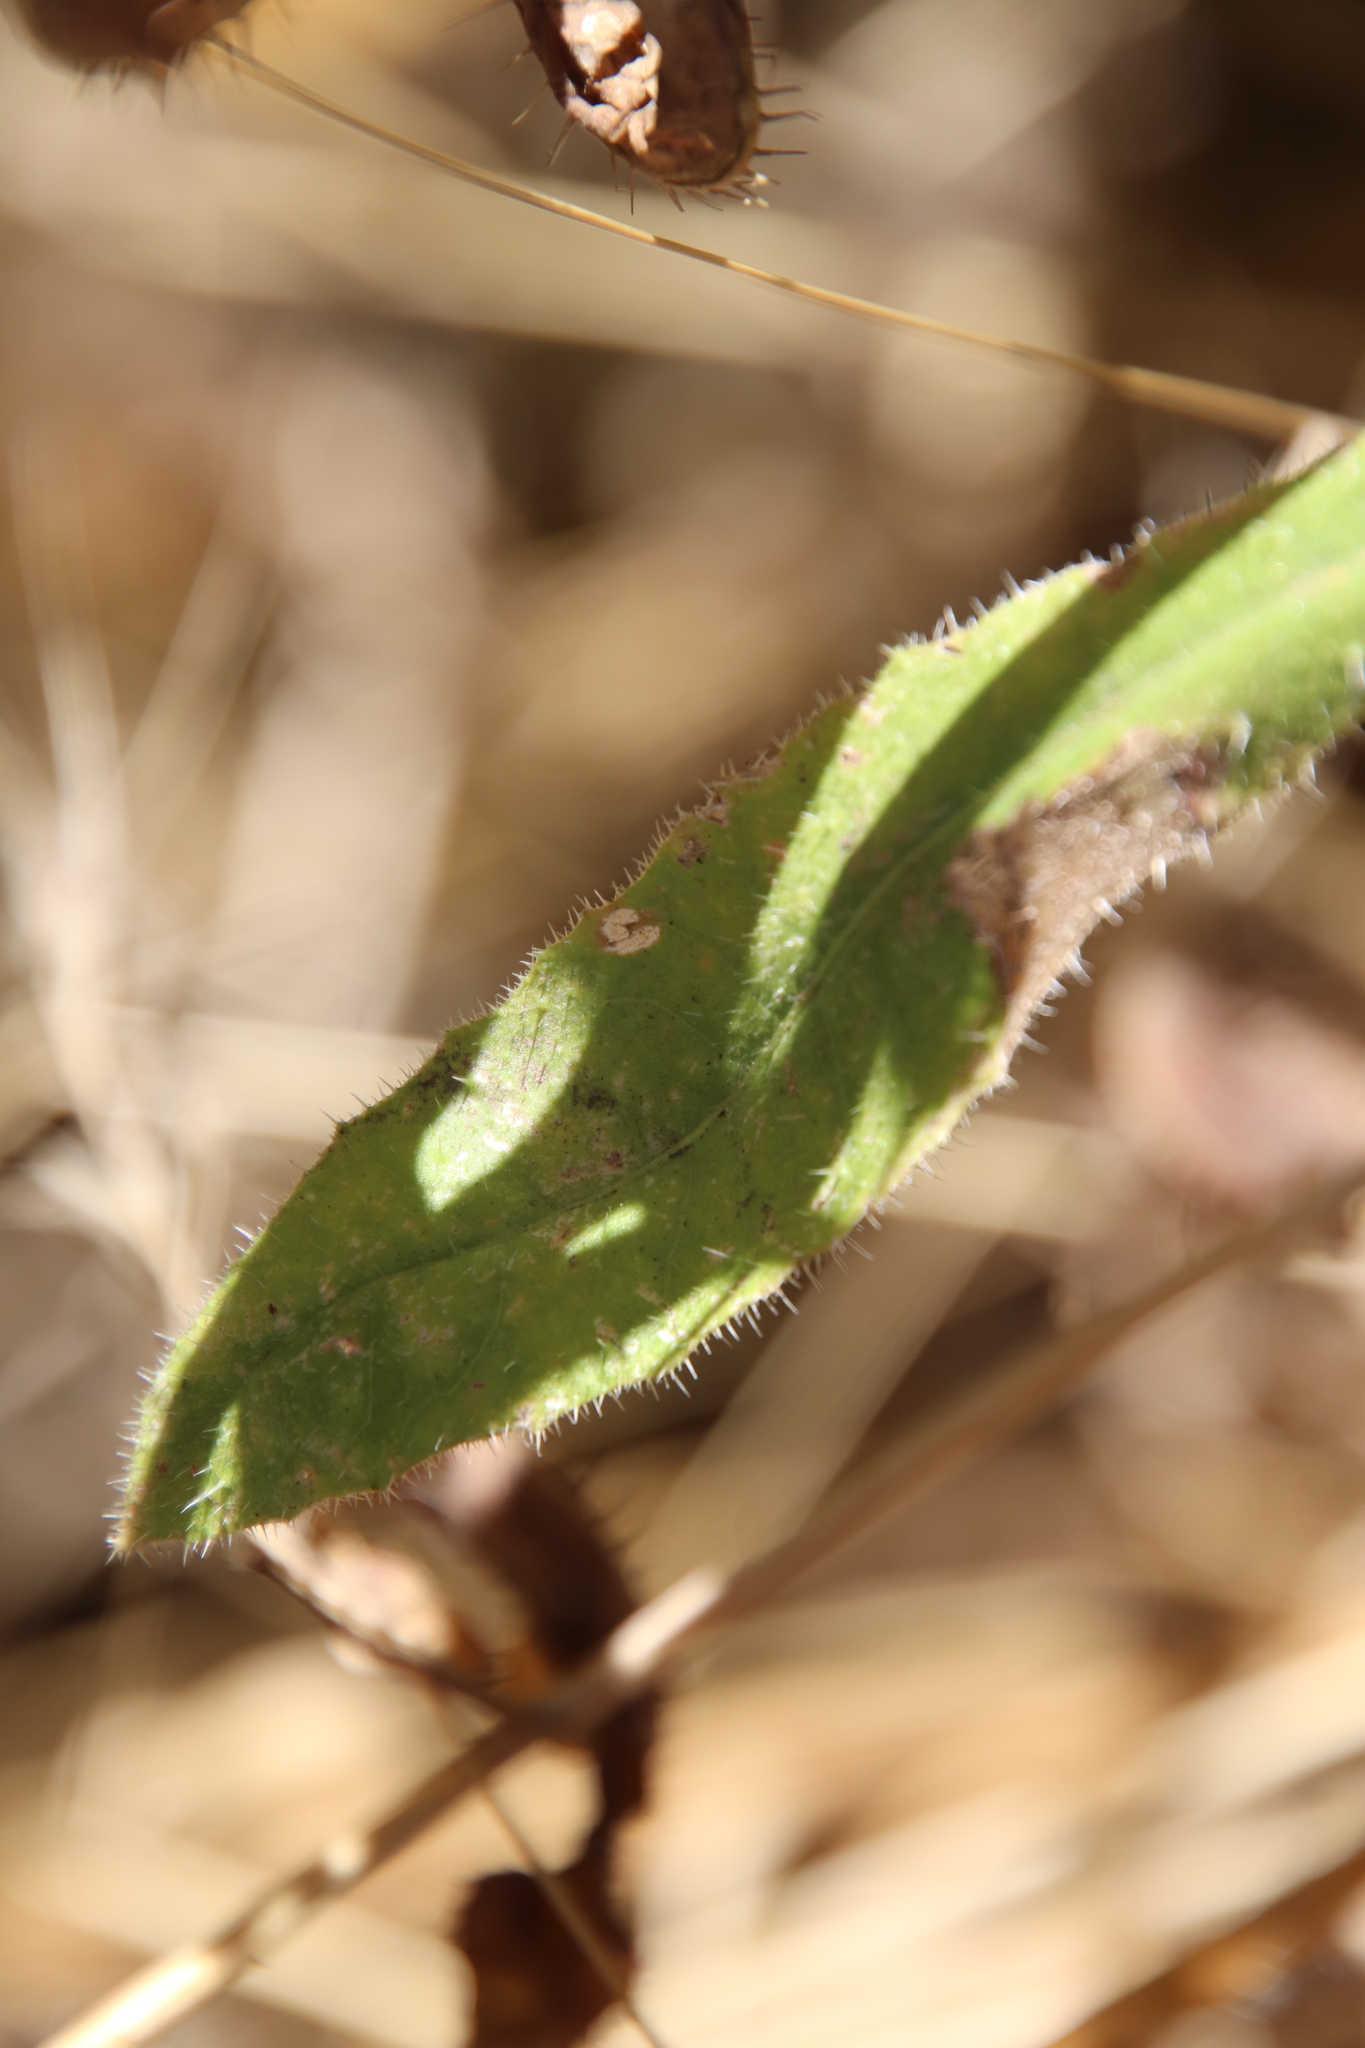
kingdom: Plantae
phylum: Tracheophyta
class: Magnoliopsida
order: Asterales
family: Asteraceae
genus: Helminthotheca
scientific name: Helminthotheca echioides
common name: Ox-tongue
